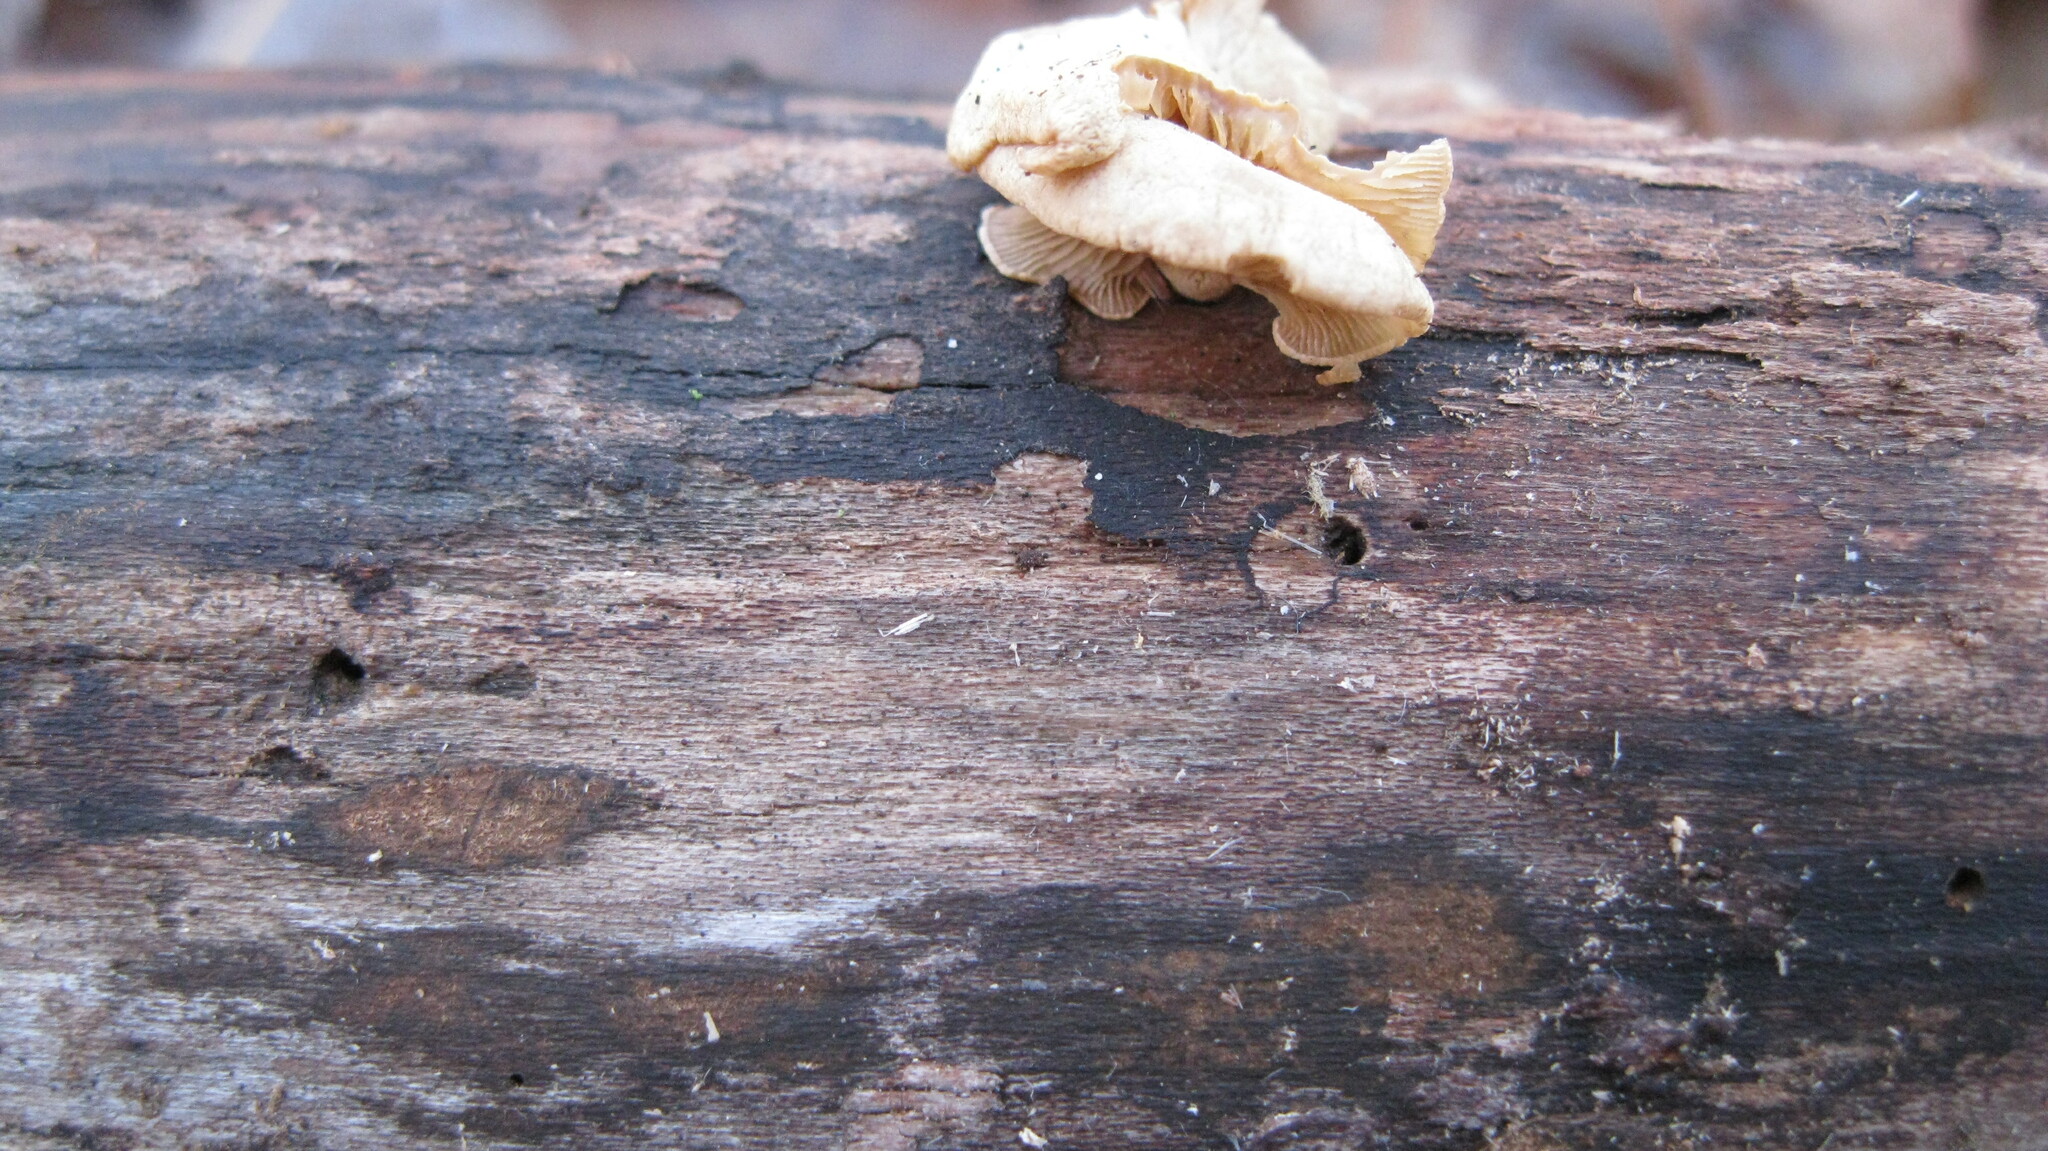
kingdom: Fungi
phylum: Basidiomycota
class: Agaricomycetes
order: Agaricales
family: Mycenaceae
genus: Panellus
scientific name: Panellus stipticus
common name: Bitter oysterling
